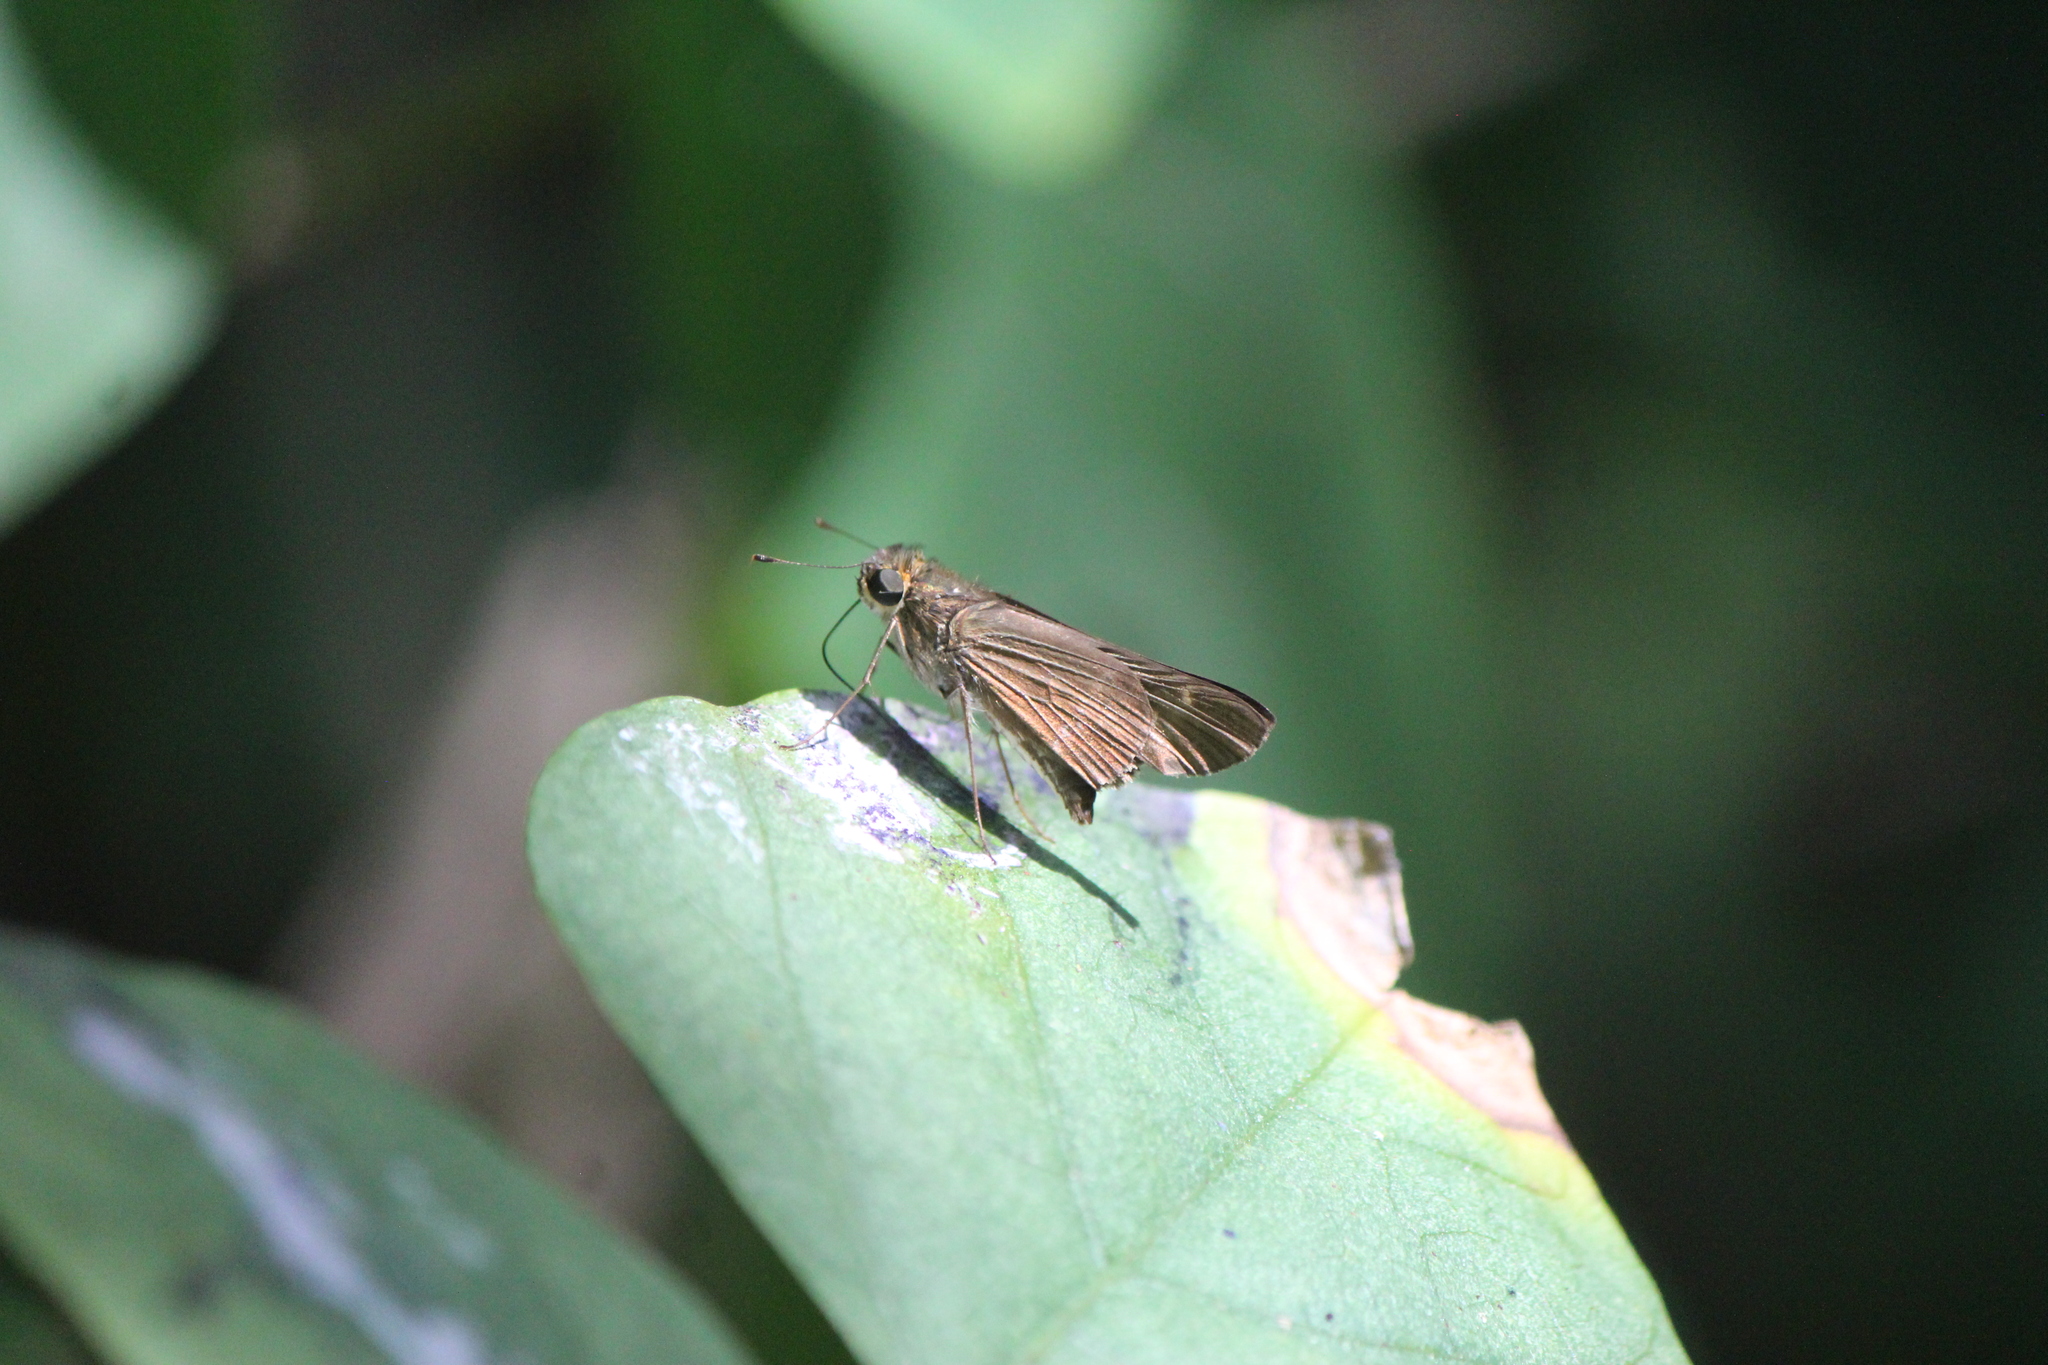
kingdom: Animalia
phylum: Arthropoda
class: Insecta
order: Lepidoptera
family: Hesperiidae
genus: Panoquina
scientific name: Panoquina ocola
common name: Ocola skipper
